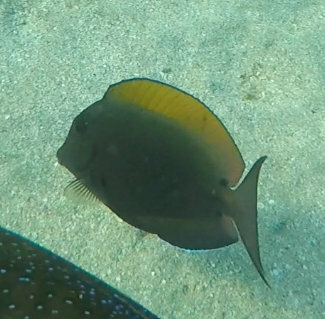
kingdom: Animalia
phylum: Chordata
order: Perciformes
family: Acanthuridae
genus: Acanthurus
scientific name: Acanthurus nigrofuscus
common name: Blackspot surgeonfish
